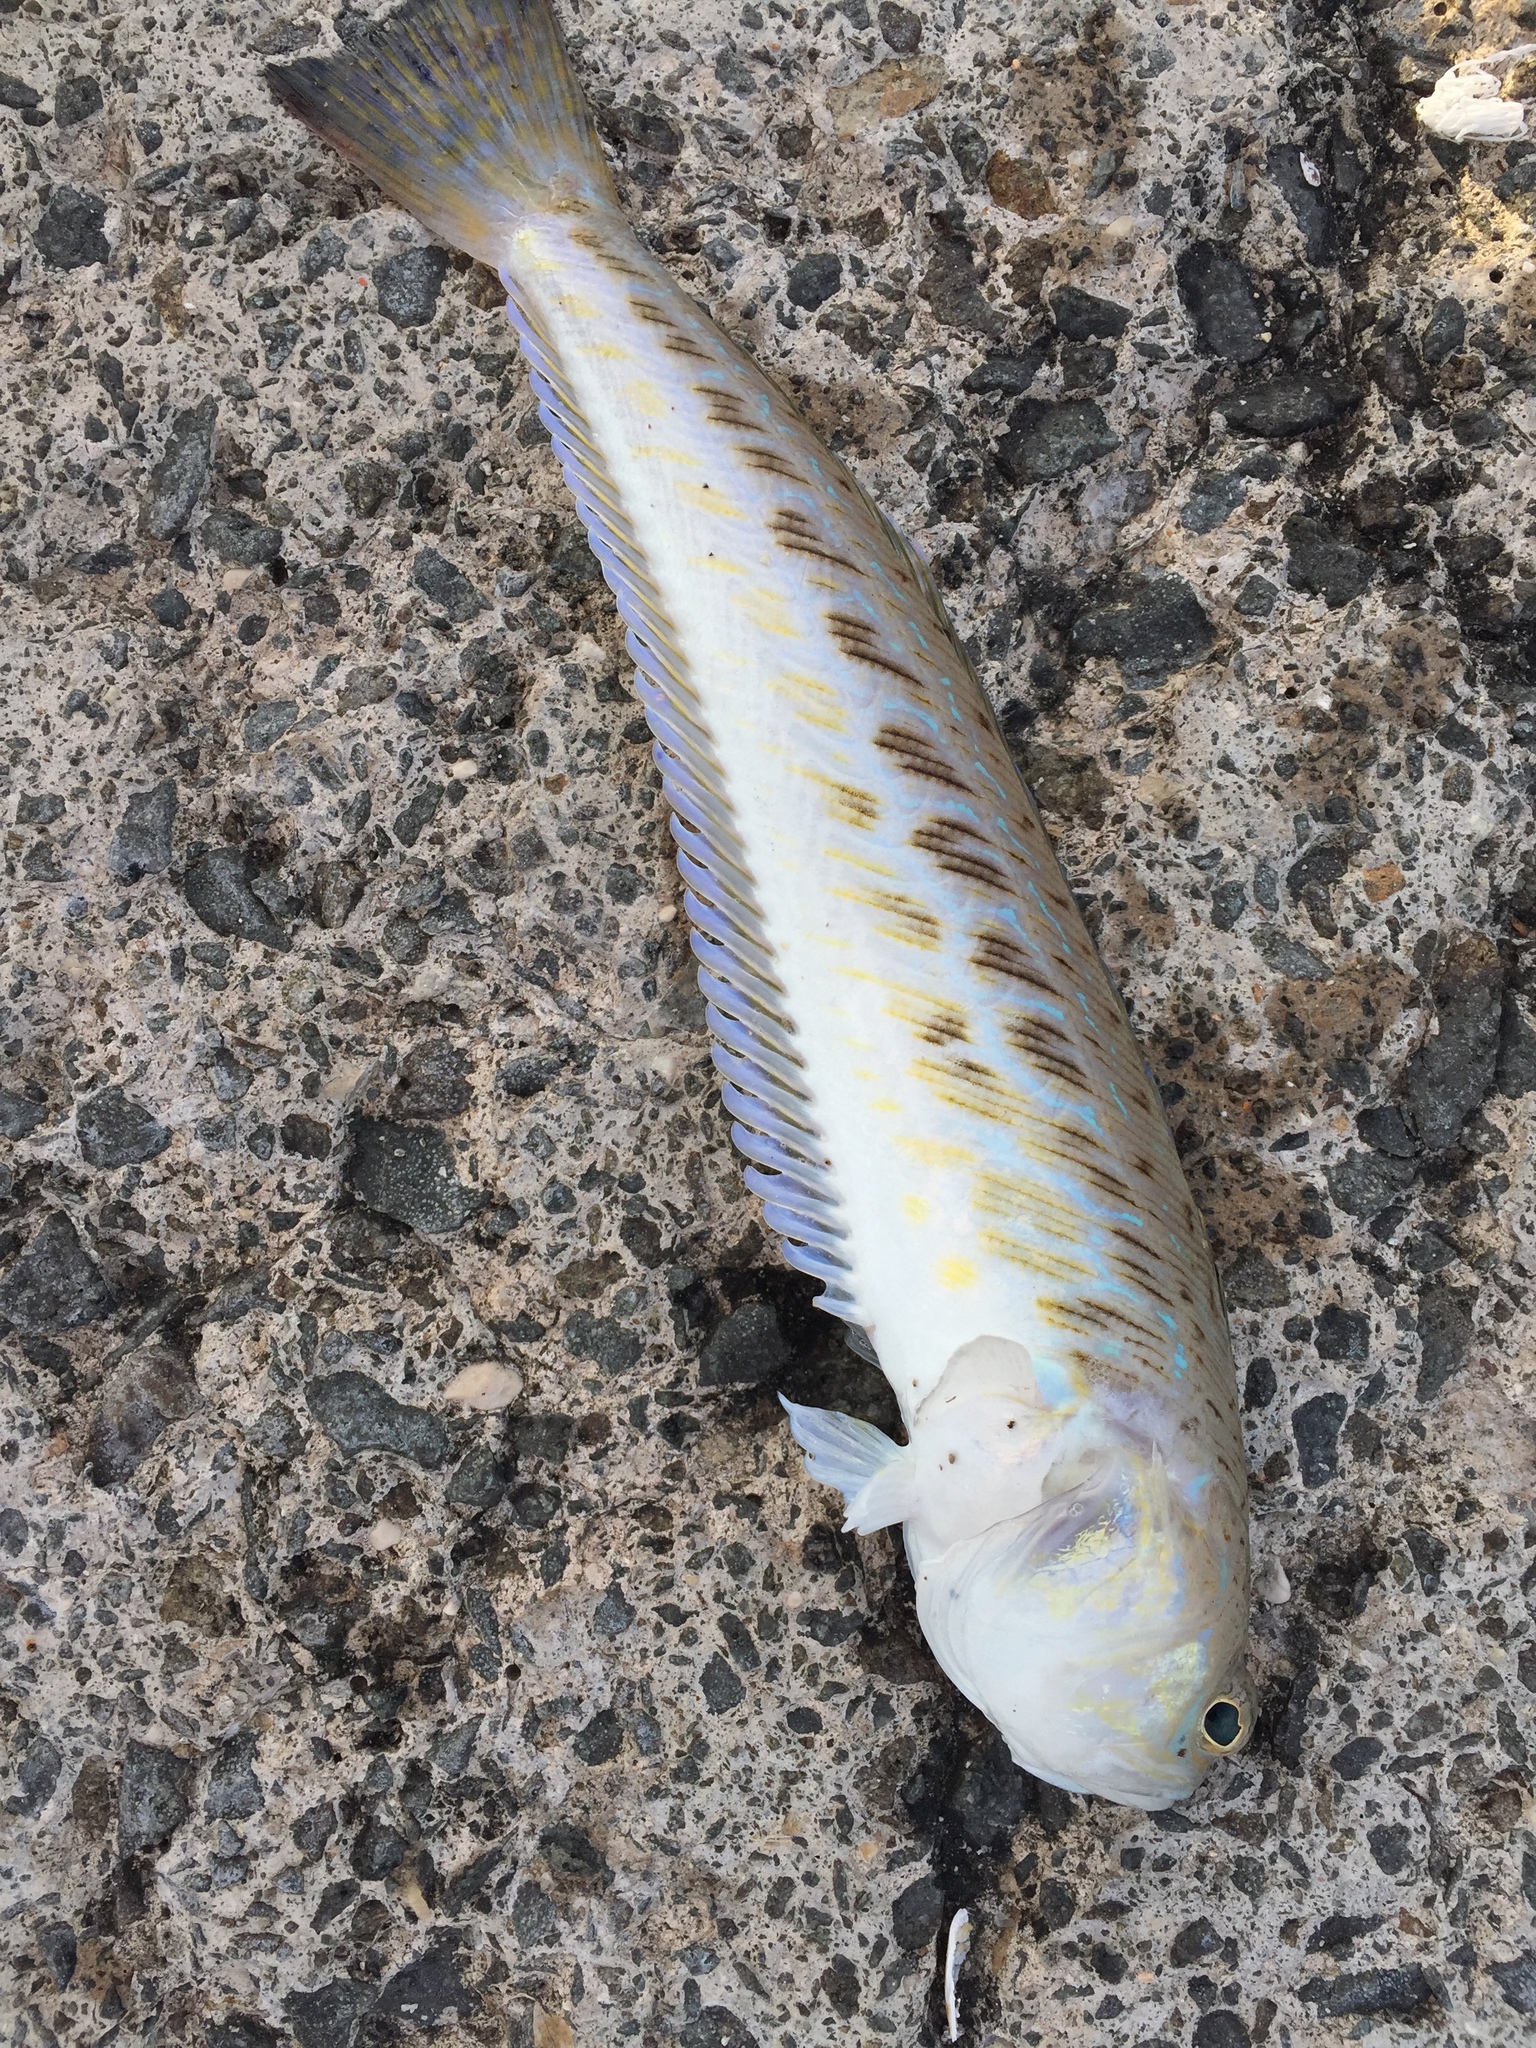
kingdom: Animalia
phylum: Chordata
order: Perciformes
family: Trachinidae
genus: Trachinus
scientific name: Trachinus draco
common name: Greater weever
